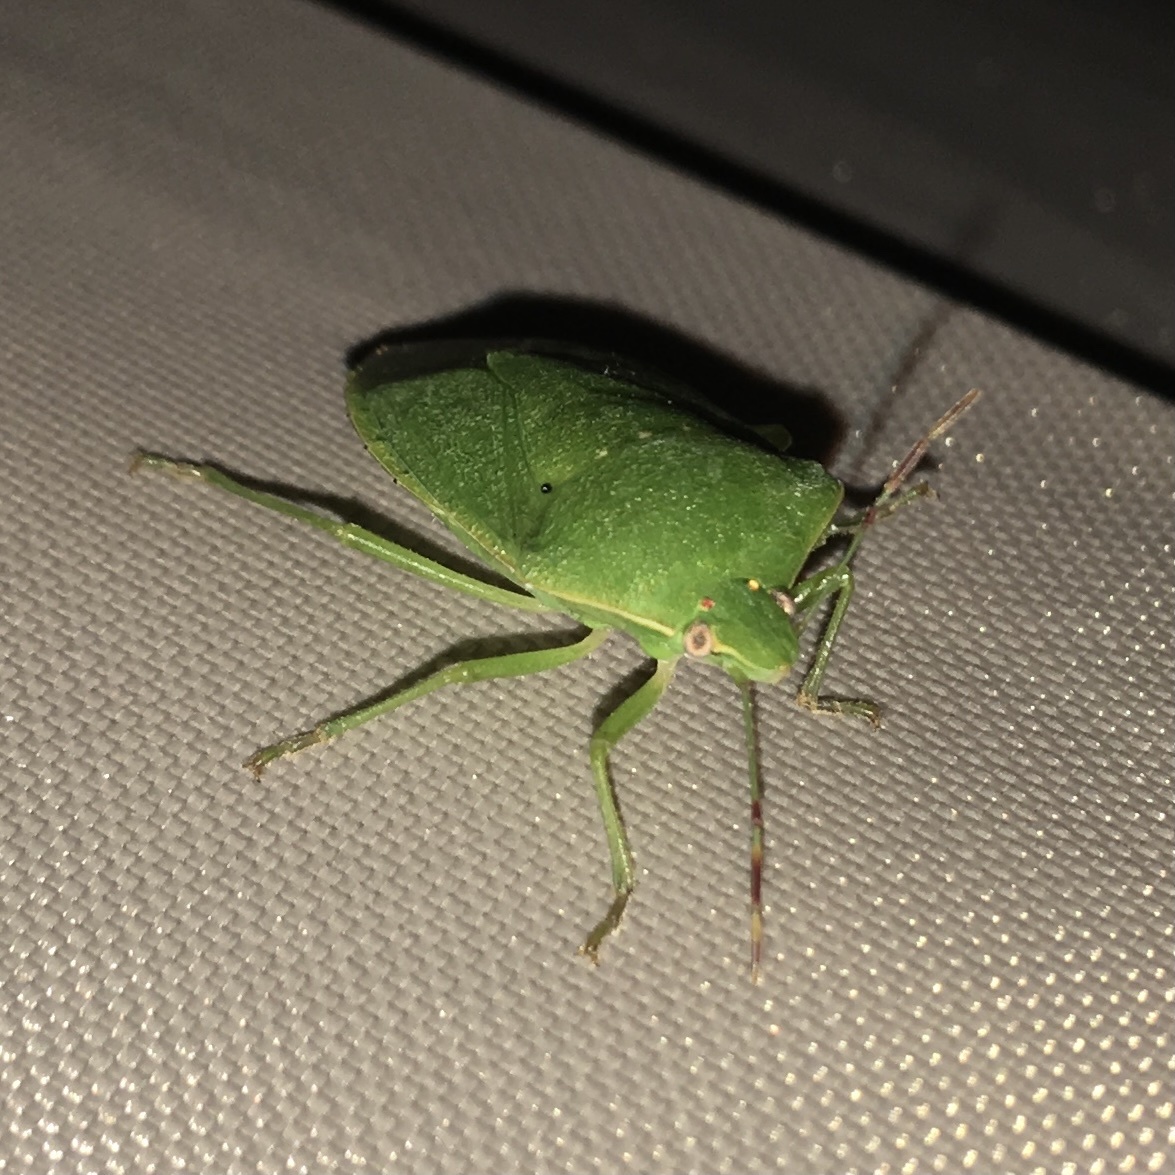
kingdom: Animalia
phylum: Arthropoda
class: Insecta
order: Hemiptera
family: Pentatomidae
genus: Nezara
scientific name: Nezara viridula
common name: Southern green stink bug
